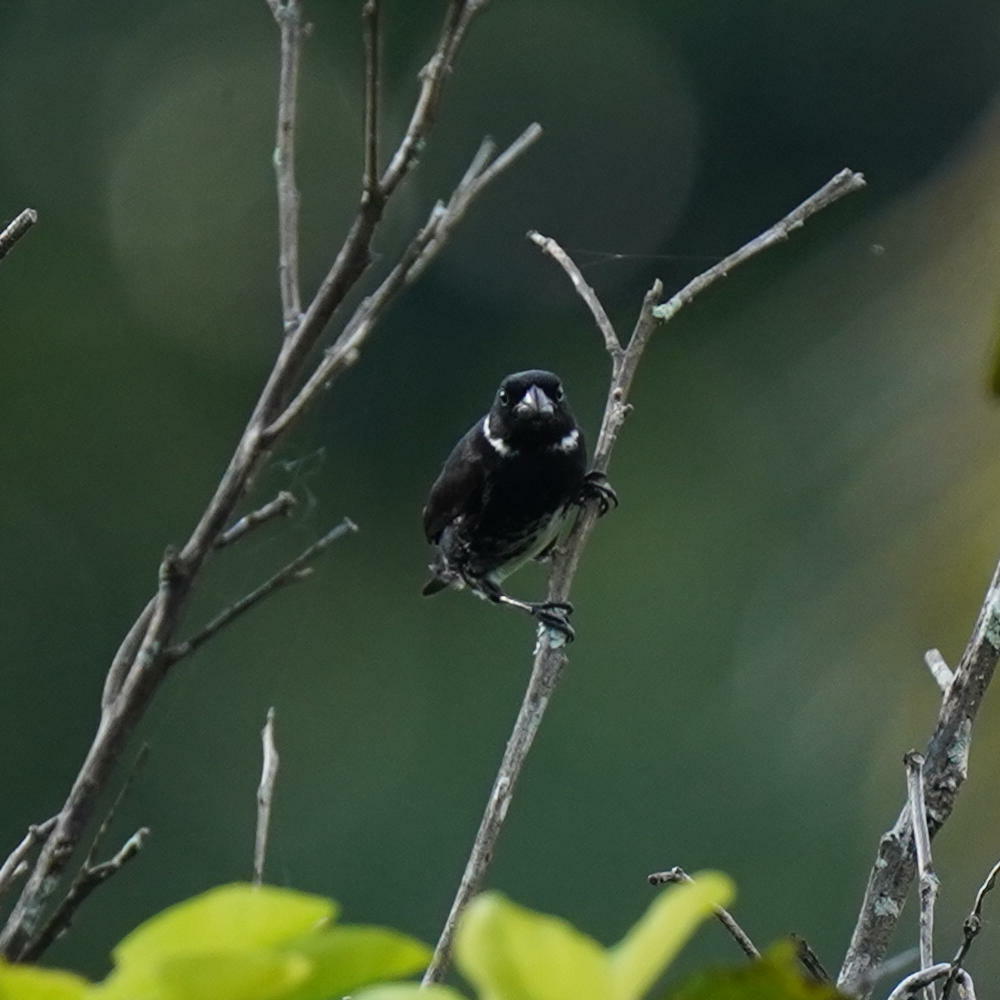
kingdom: Animalia
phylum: Chordata
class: Aves
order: Passeriformes
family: Thraupidae
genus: Sporophila
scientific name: Sporophila corvina
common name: Variable seedeater
